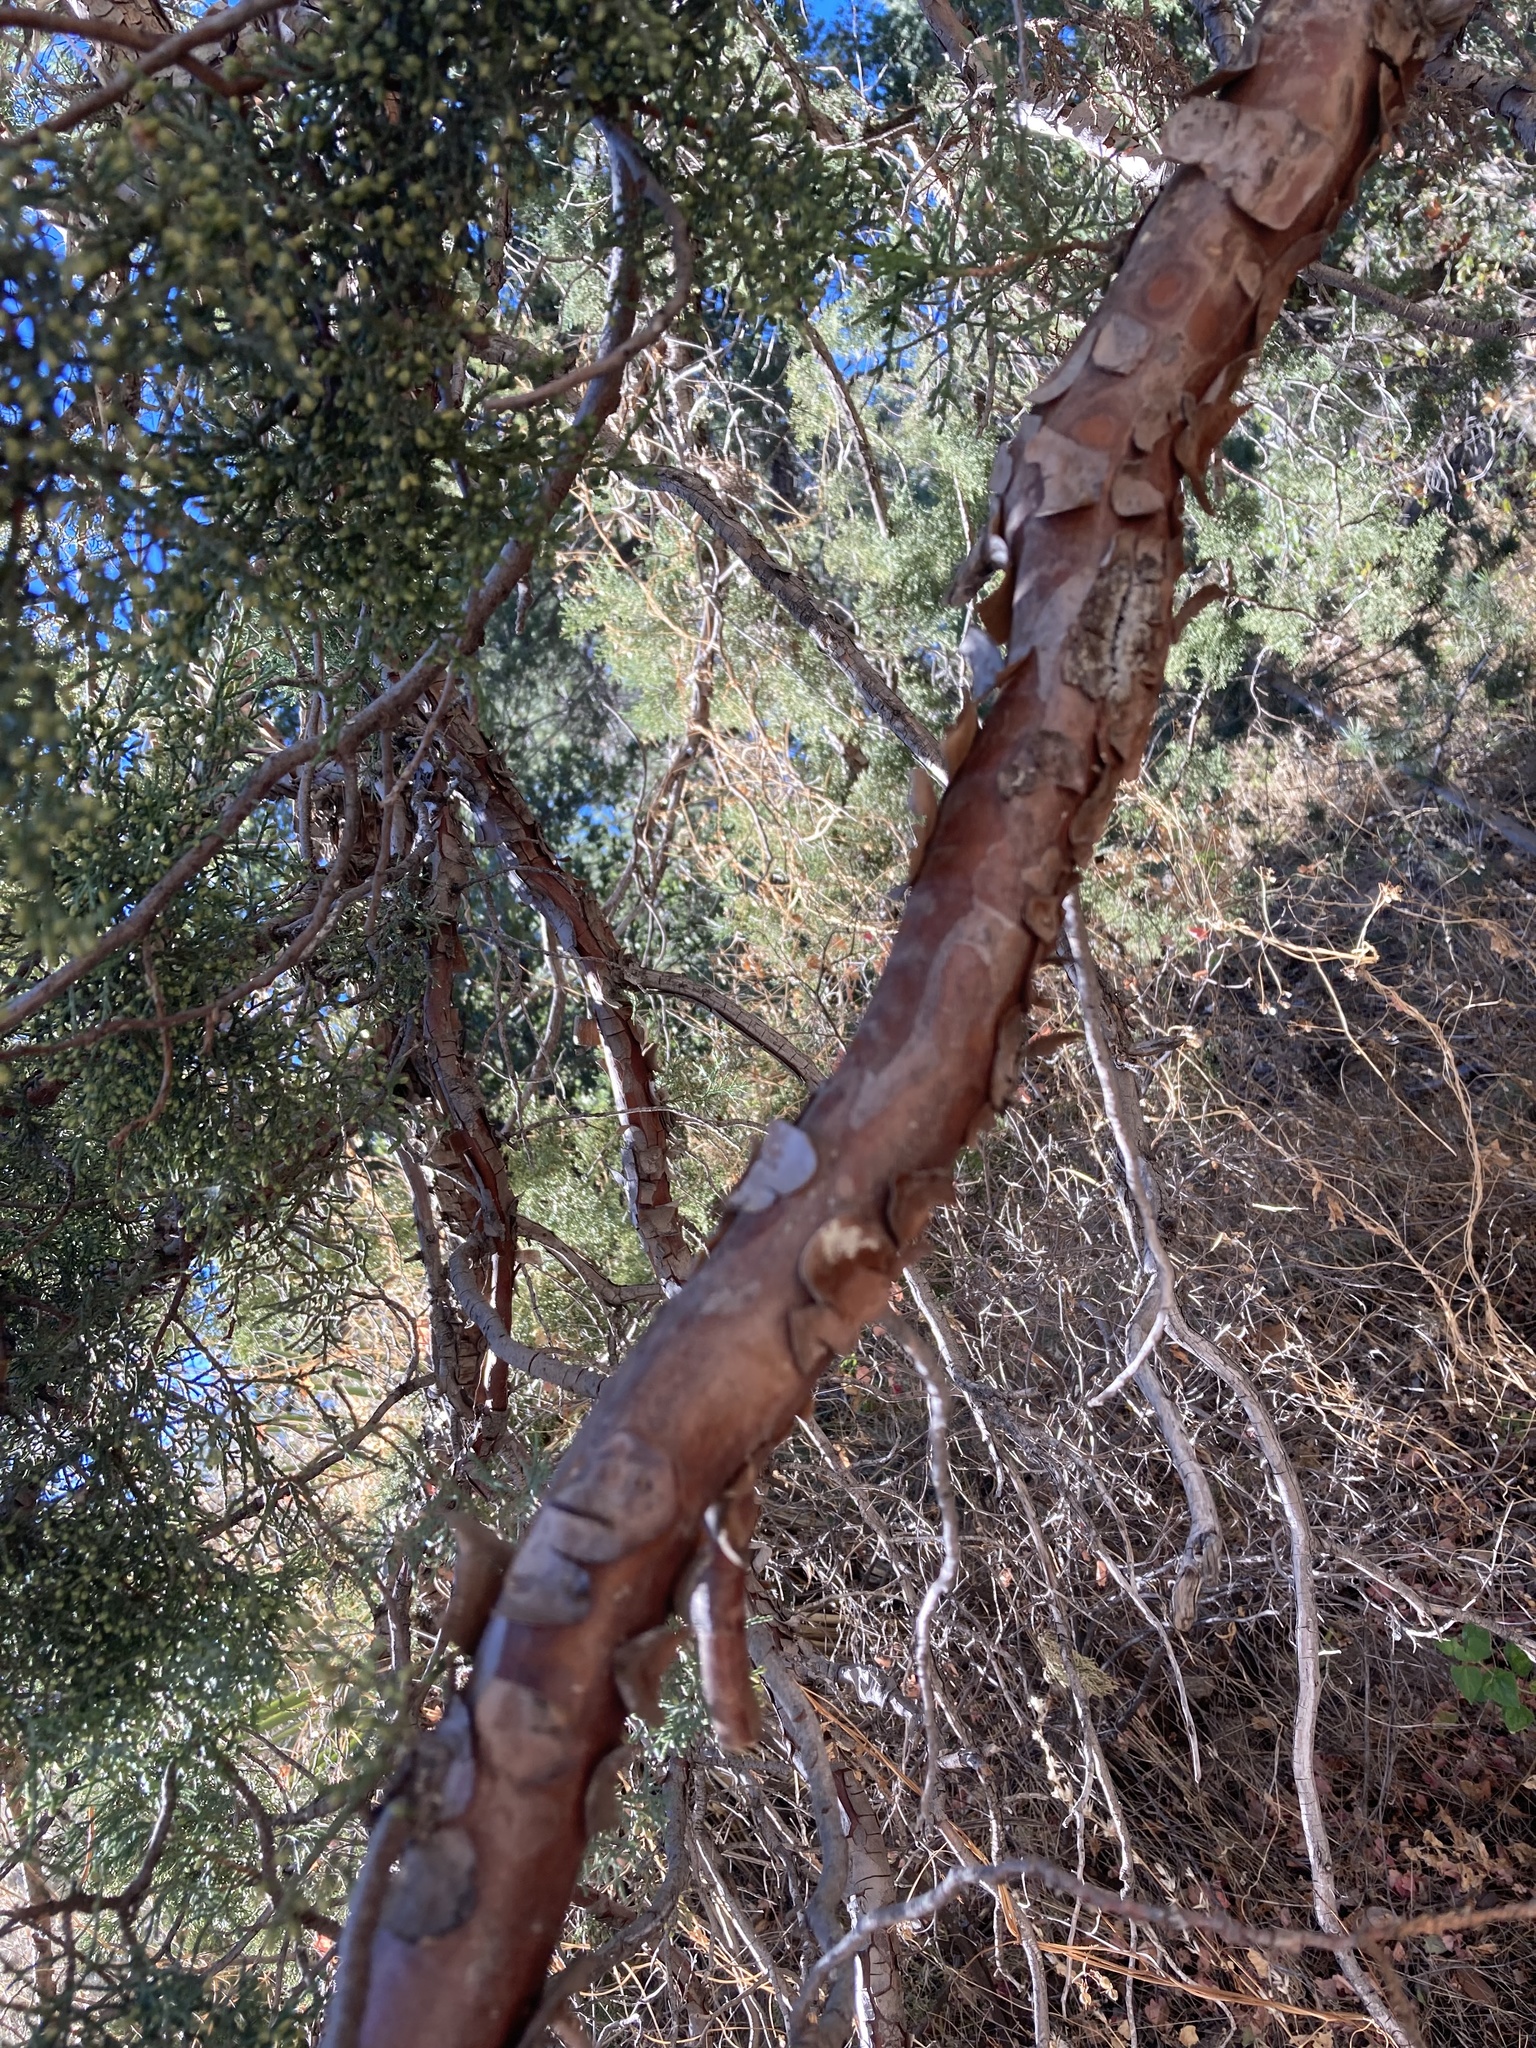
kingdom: Plantae
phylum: Tracheophyta
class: Pinopsida
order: Pinales
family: Cupressaceae
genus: Juniperus
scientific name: Juniperus deppeana
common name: Alligator juniper
